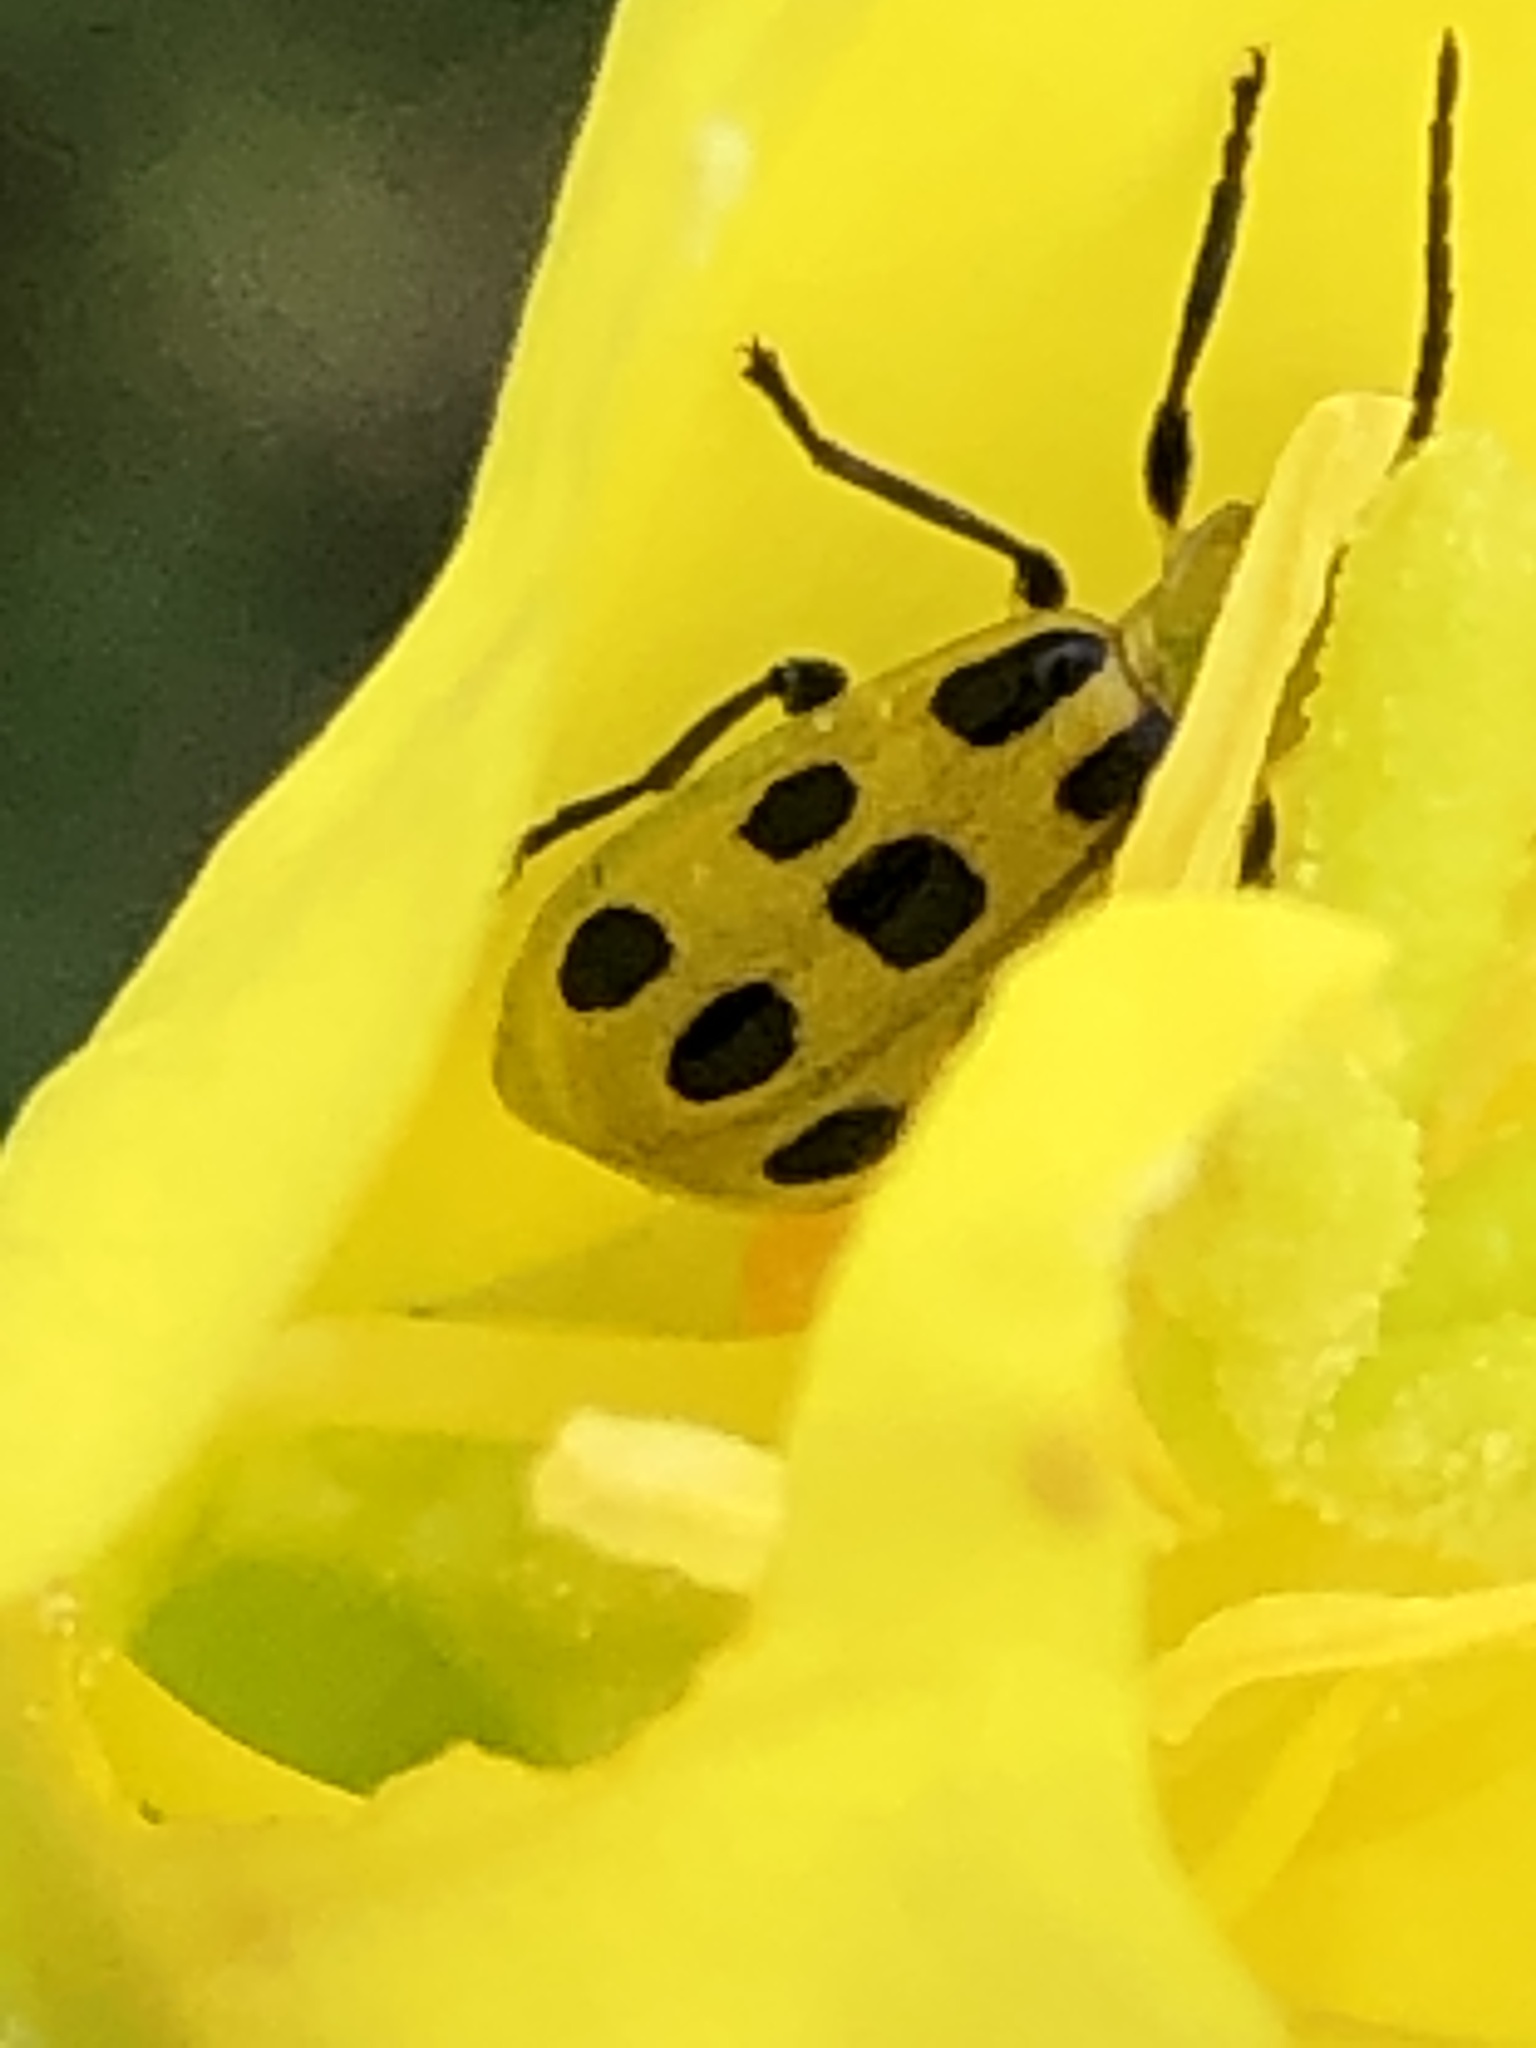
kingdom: Animalia
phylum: Arthropoda
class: Insecta
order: Coleoptera
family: Chrysomelidae
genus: Diabrotica
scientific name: Diabrotica undecimpunctata
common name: Spotted cucumber beetle
